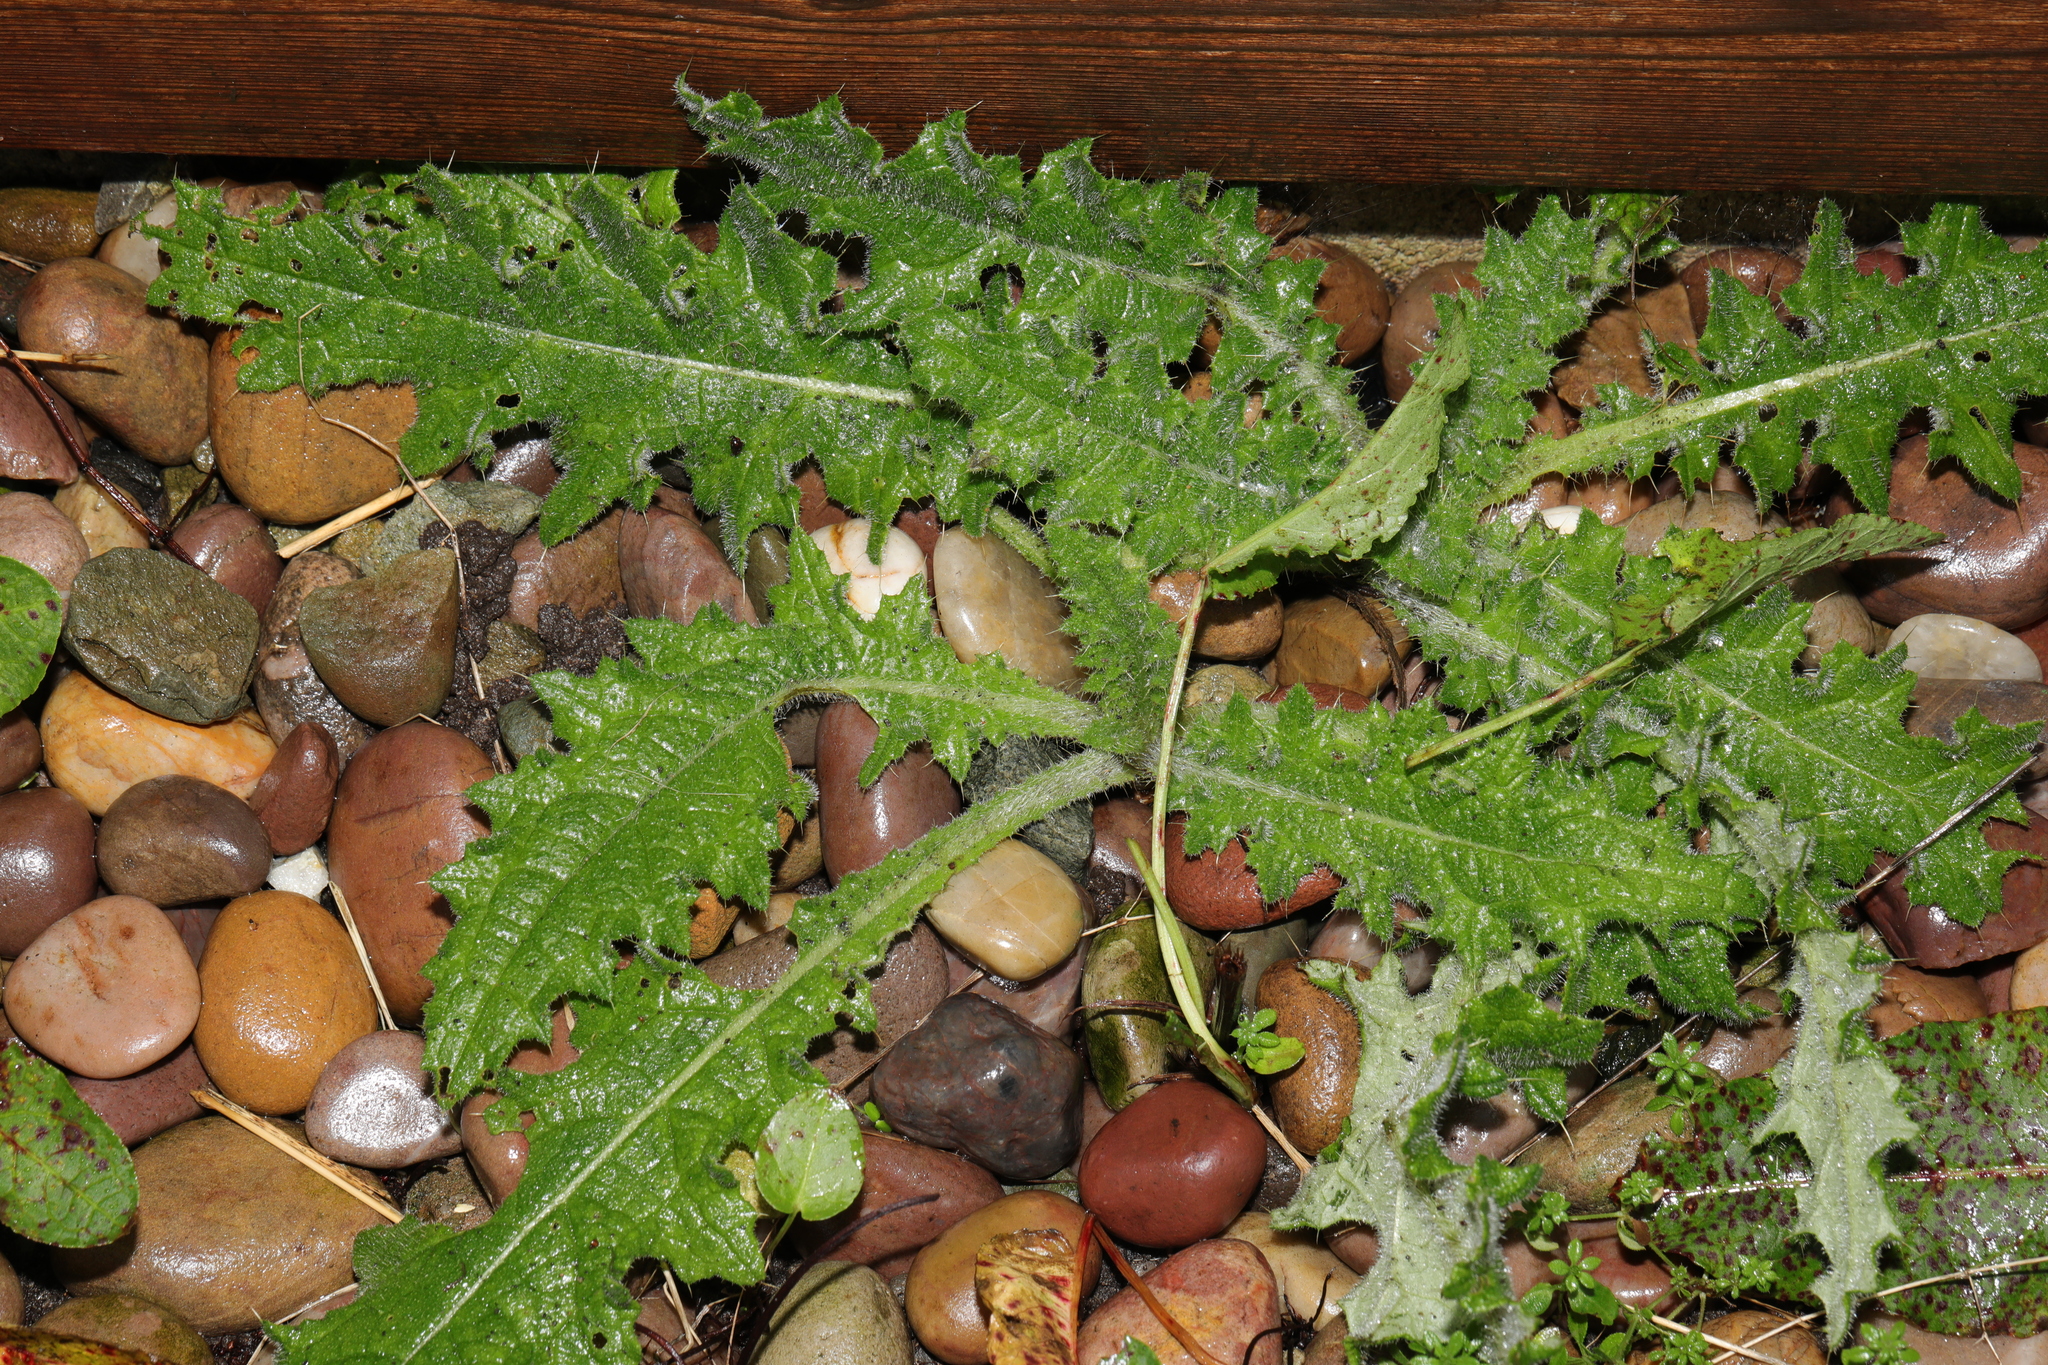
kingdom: Plantae
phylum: Tracheophyta
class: Magnoliopsida
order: Asterales
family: Asteraceae
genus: Cirsium
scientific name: Cirsium vulgare
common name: Bull thistle
